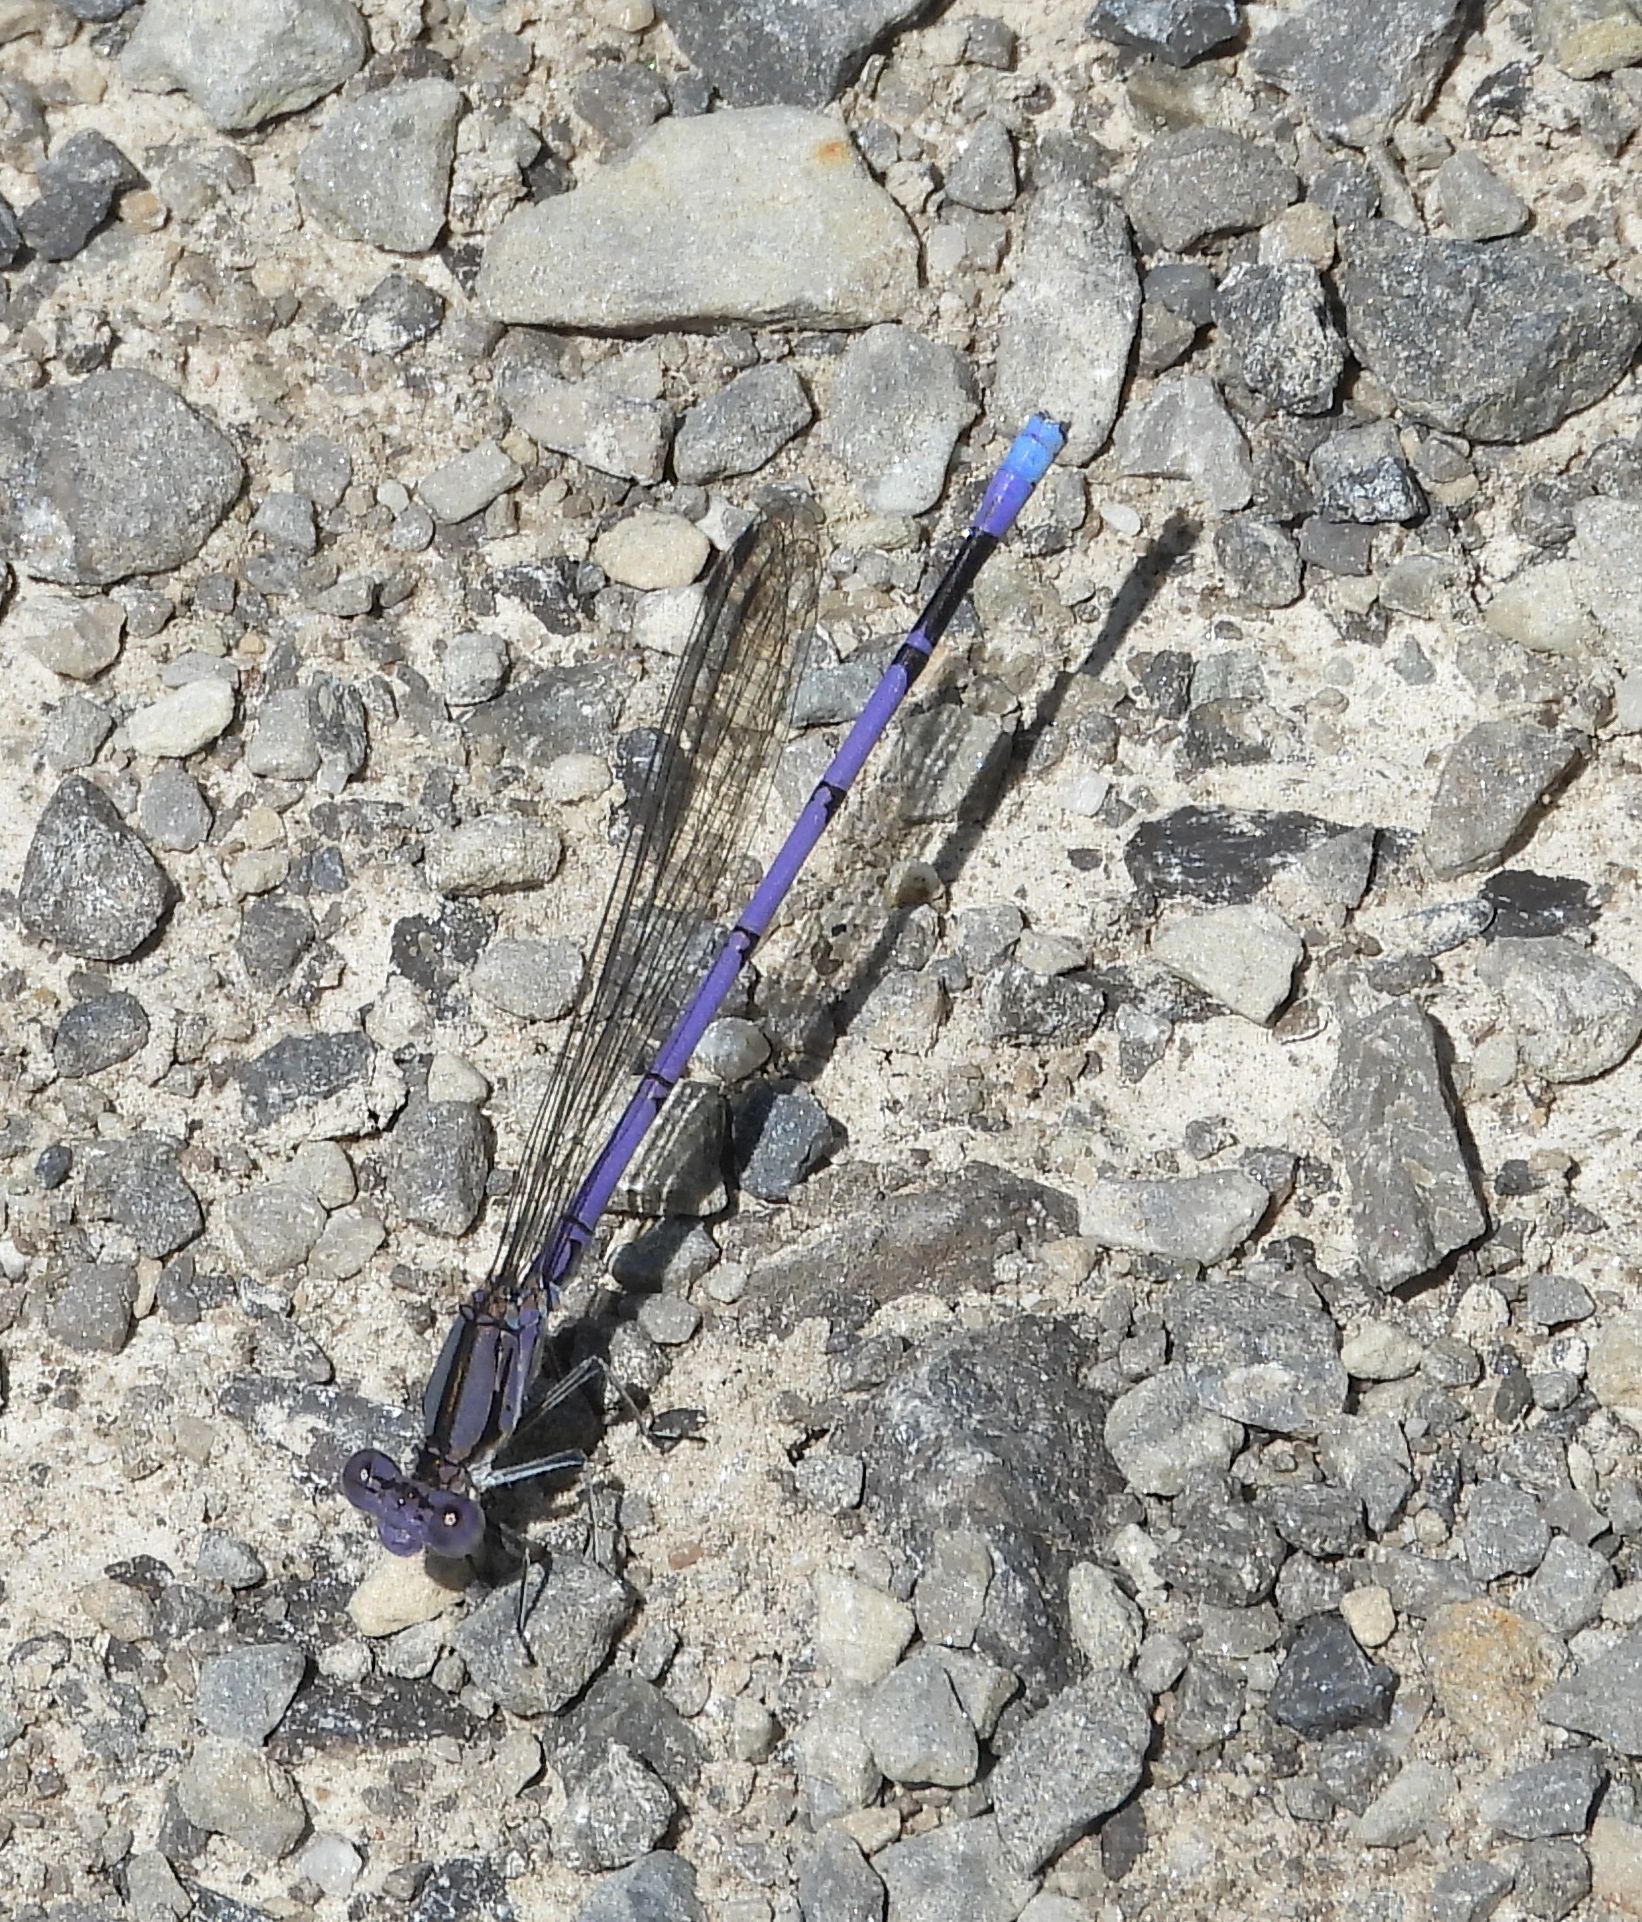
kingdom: Animalia
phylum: Arthropoda
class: Insecta
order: Odonata
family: Coenagrionidae
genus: Argia
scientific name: Argia fumipennis
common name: Variable dancer
